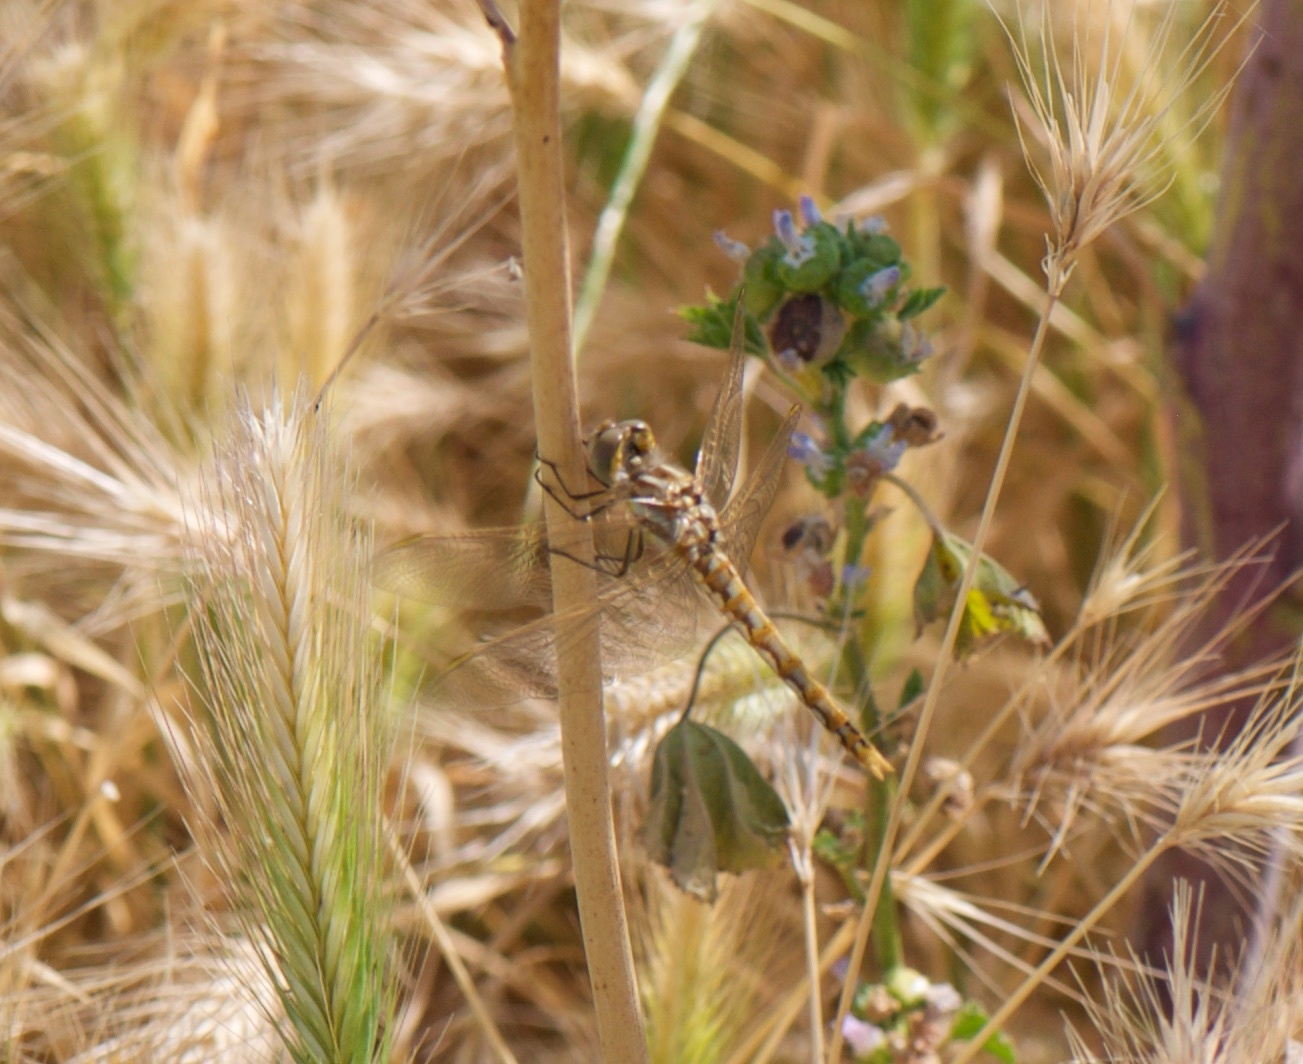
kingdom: Animalia
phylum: Arthropoda
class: Insecta
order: Odonata
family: Libellulidae
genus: Sympetrum
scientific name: Sympetrum corruptum
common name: Variegated meadowhawk
